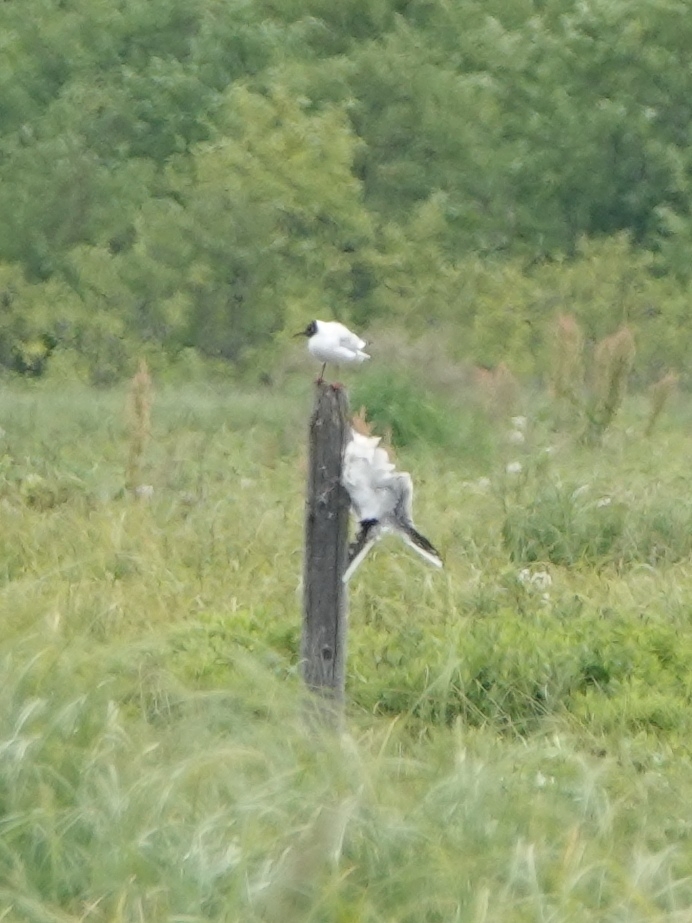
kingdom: Animalia
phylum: Chordata
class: Aves
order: Charadriiformes
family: Laridae
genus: Chroicocephalus
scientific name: Chroicocephalus ridibundus
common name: Black-headed gull
